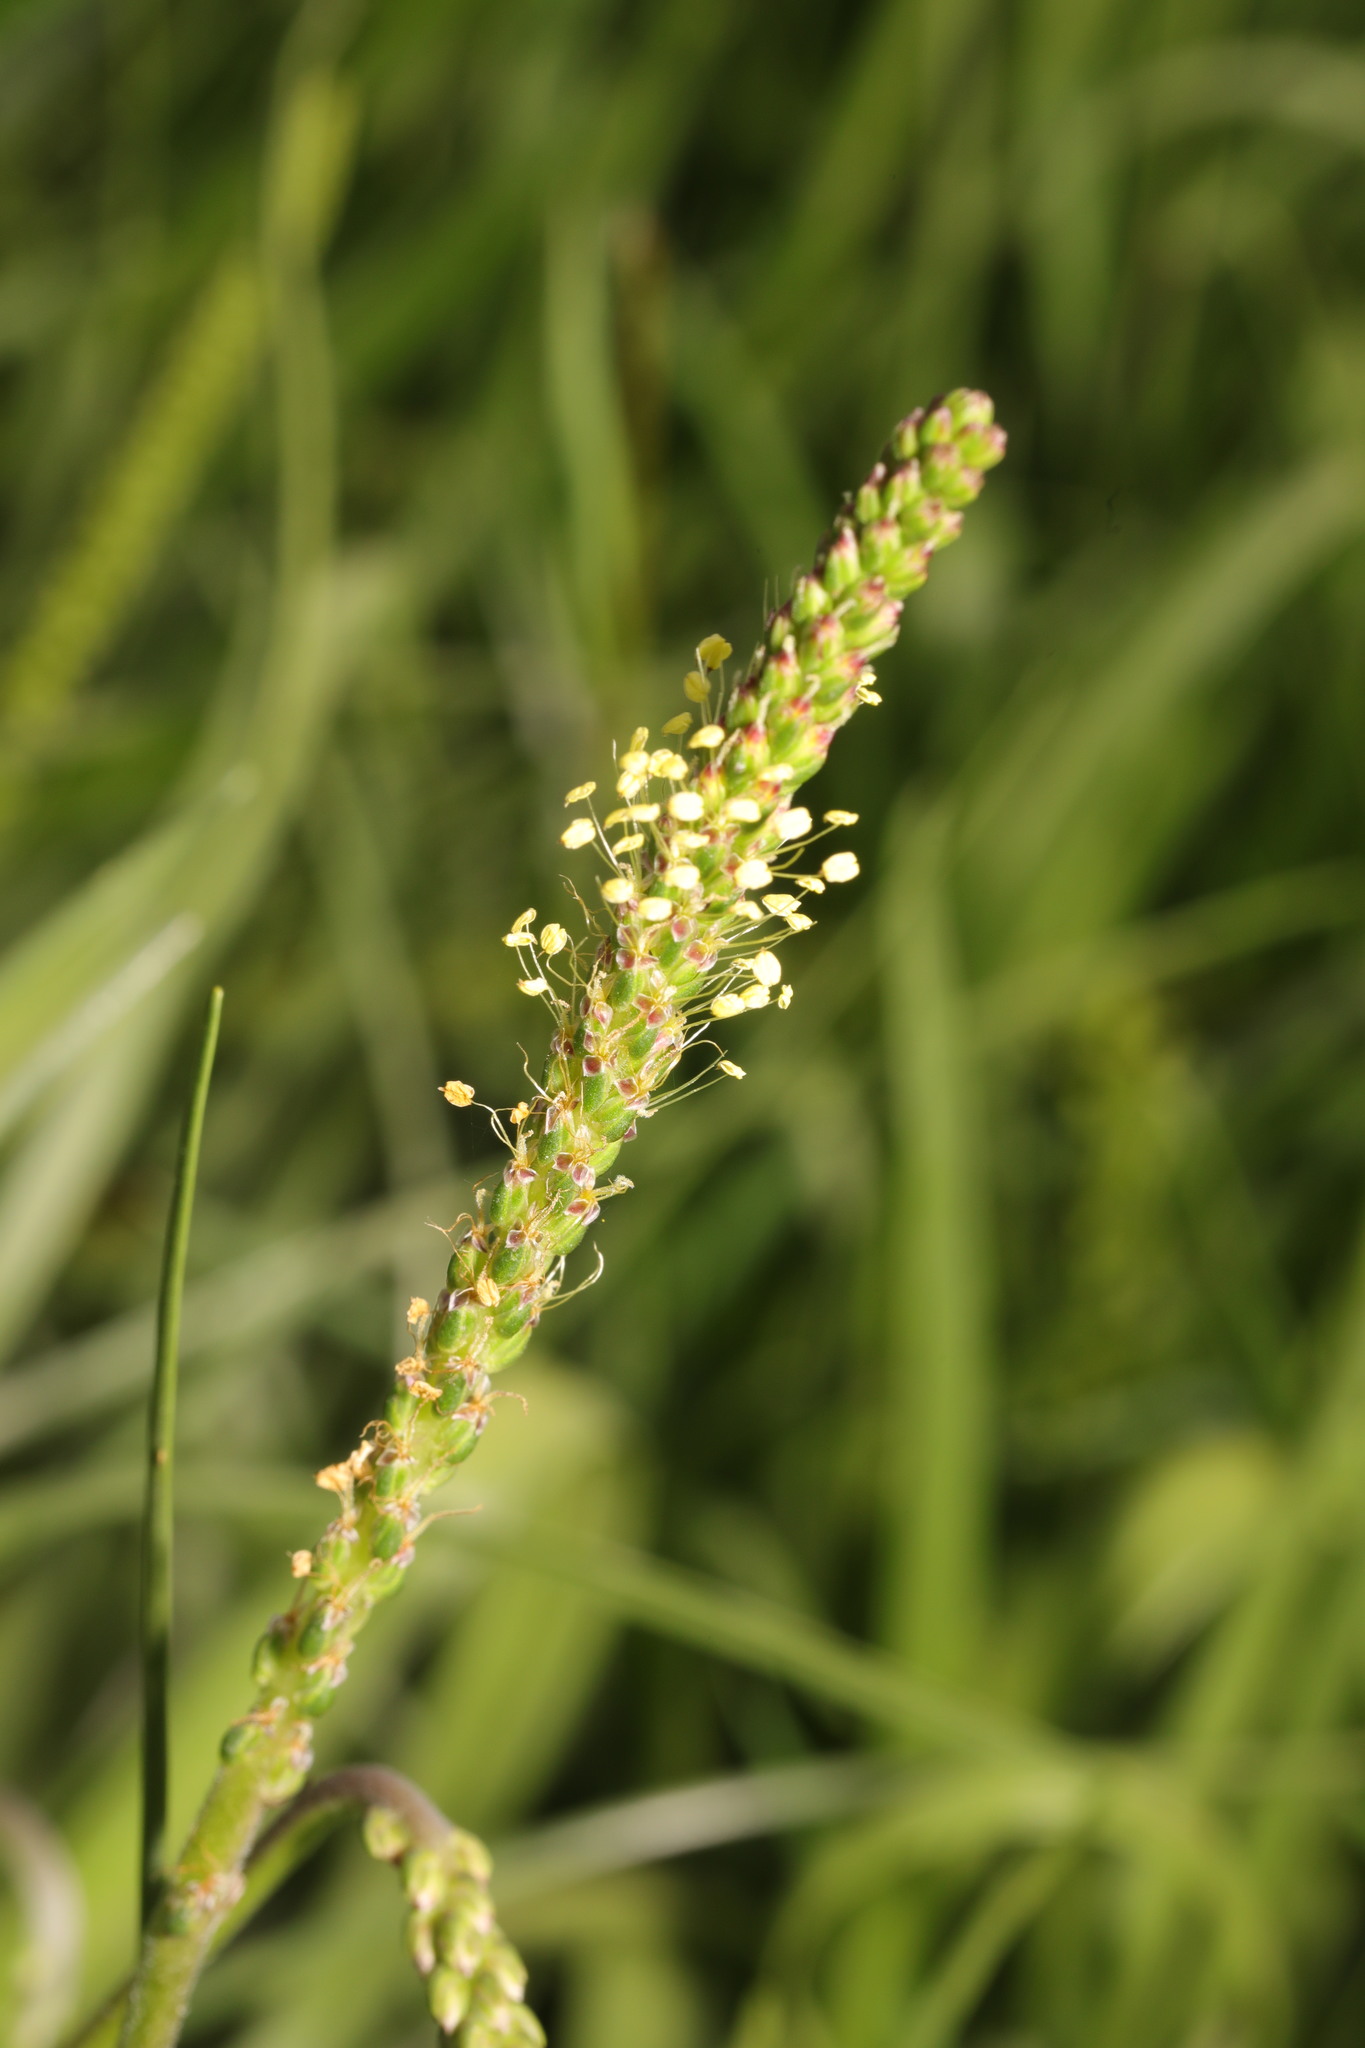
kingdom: Plantae
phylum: Tracheophyta
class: Magnoliopsida
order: Lamiales
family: Plantaginaceae
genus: Plantago
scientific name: Plantago maritima
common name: Sea plantain
